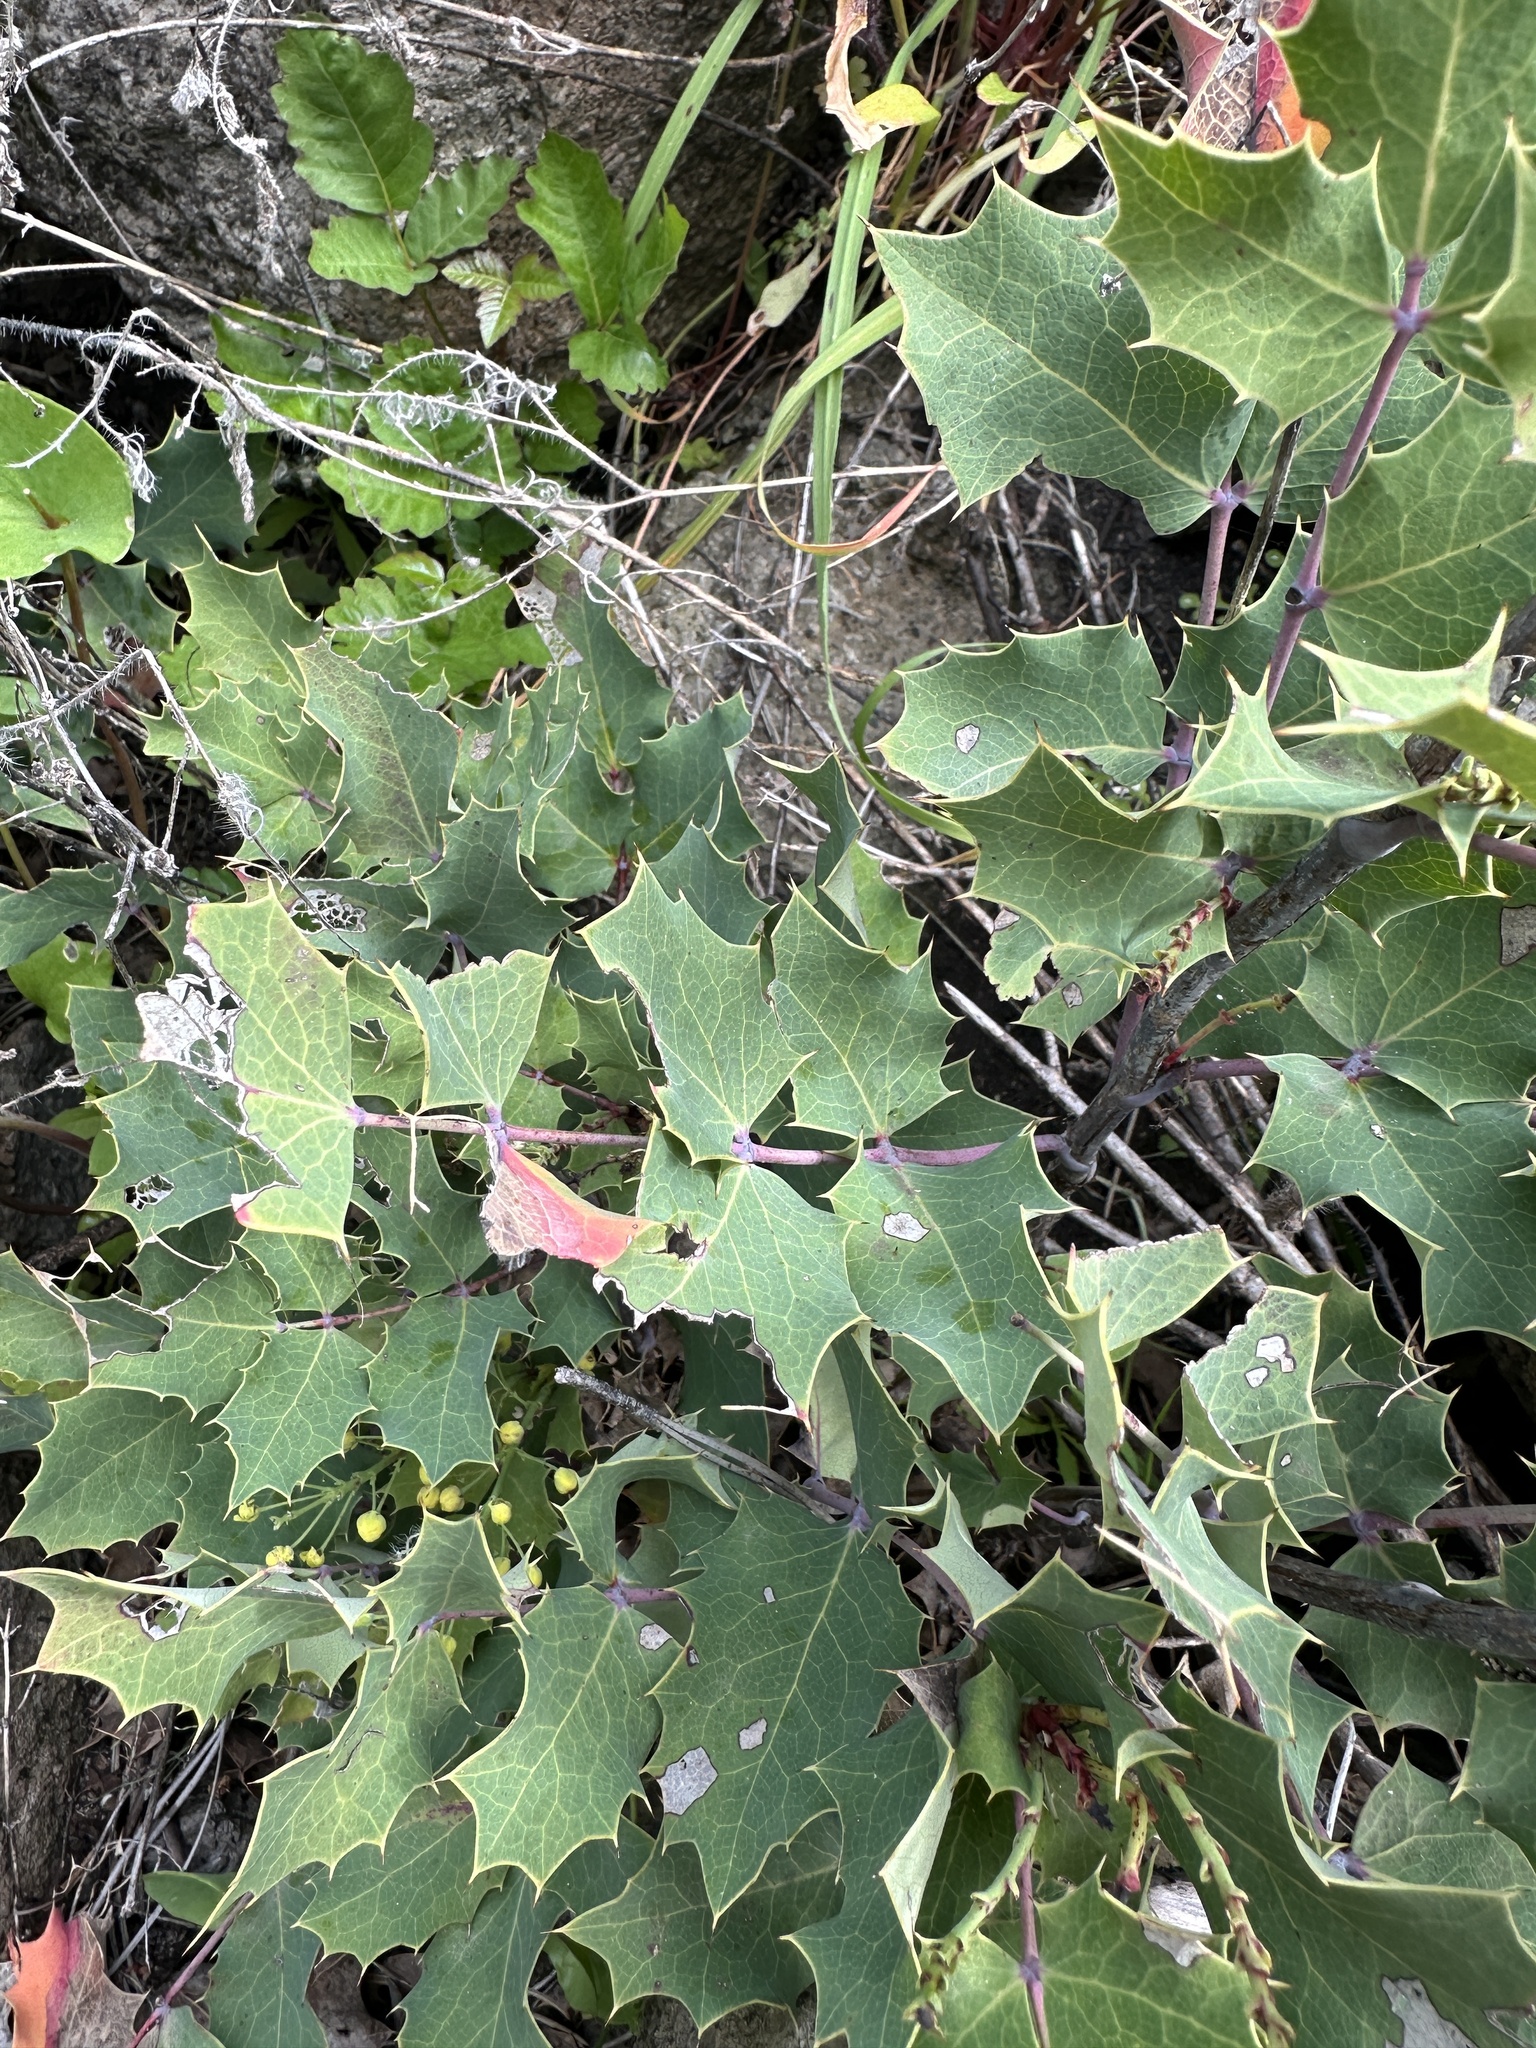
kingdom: Plantae
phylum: Tracheophyta
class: Magnoliopsida
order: Ranunculales
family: Berberidaceae
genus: Mahonia
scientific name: Mahonia dictyota
